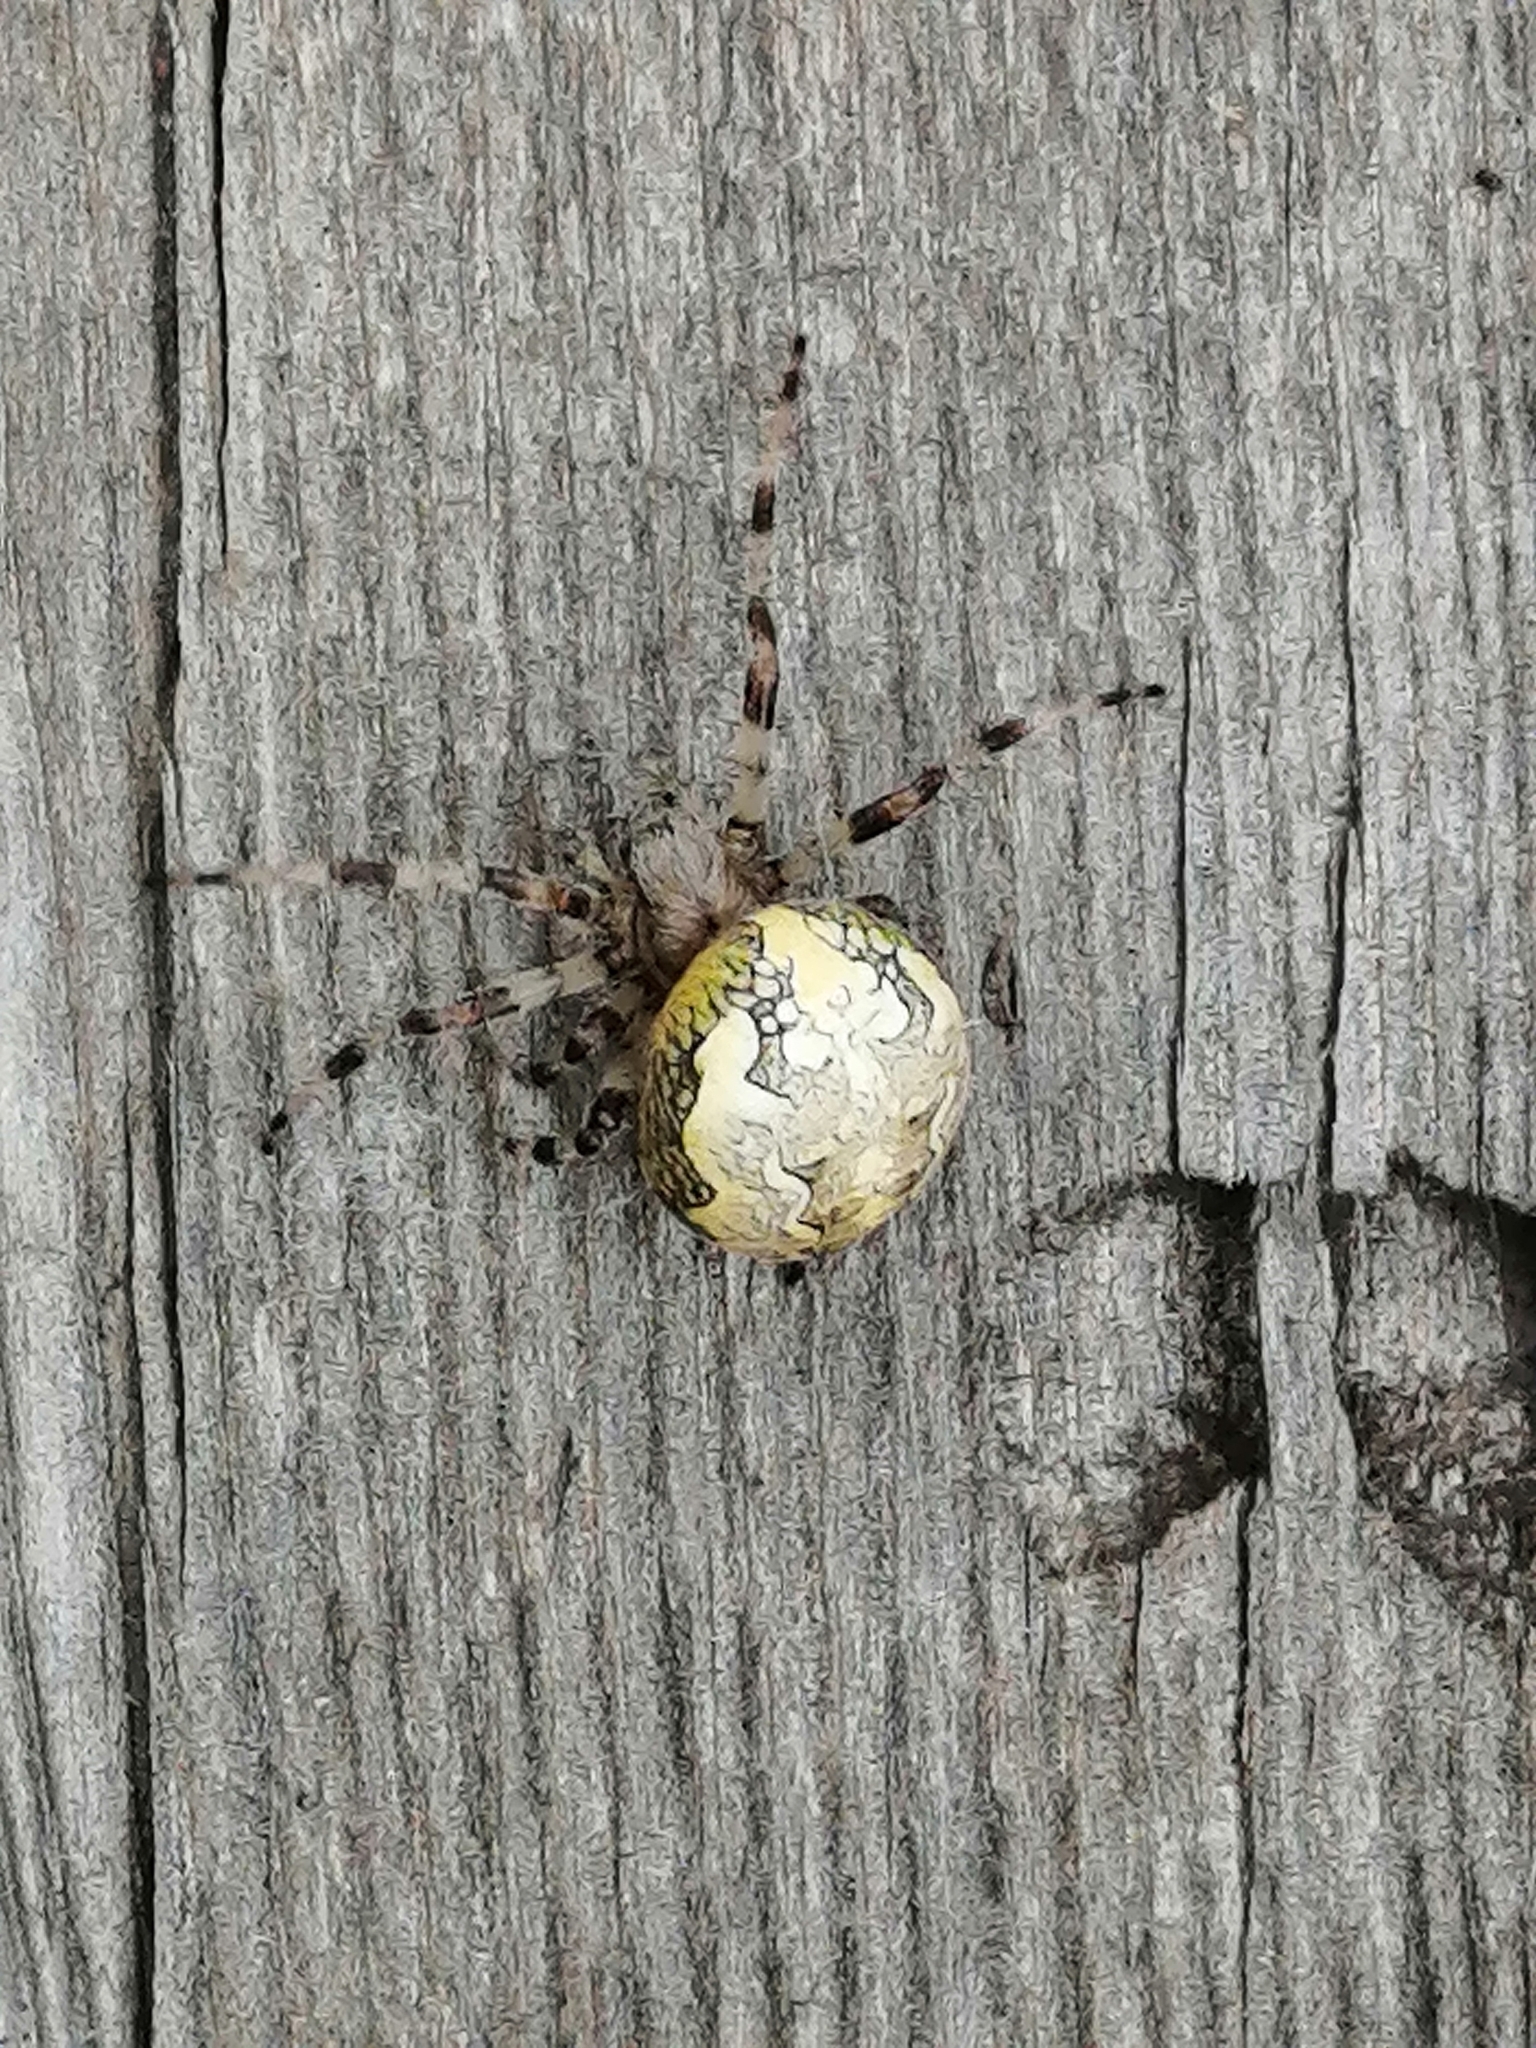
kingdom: Animalia
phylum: Arthropoda
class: Arachnida
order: Araneae
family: Araneidae
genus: Araneus
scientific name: Araneus marmoreus
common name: Marbled orbweaver
